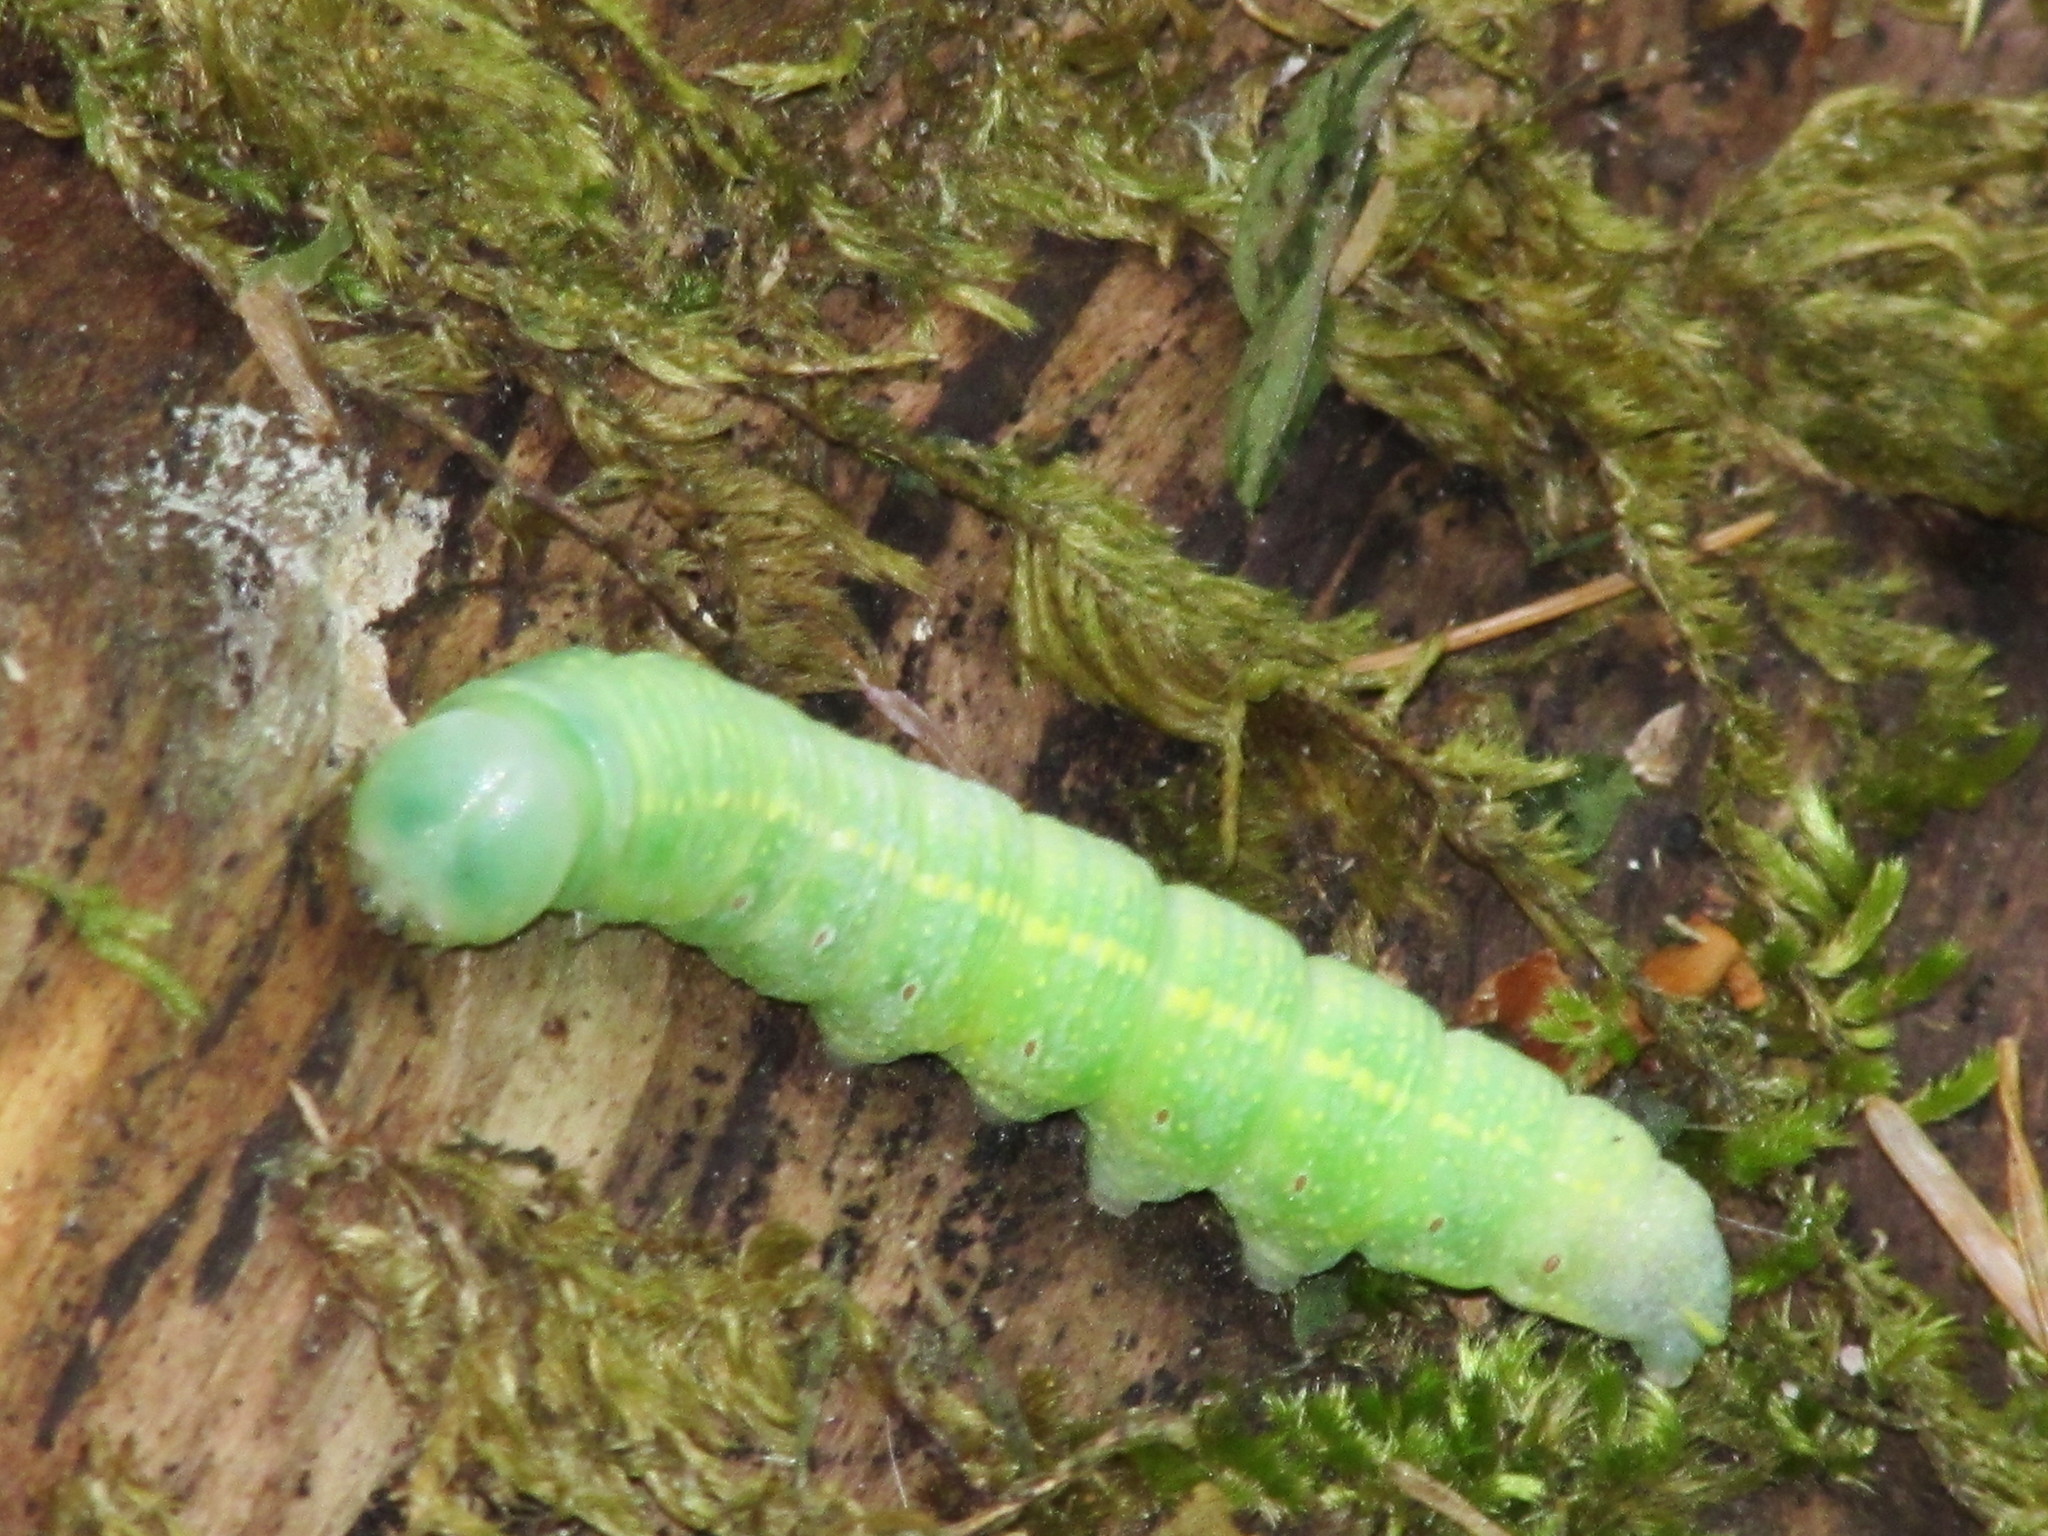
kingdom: Animalia
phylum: Arthropoda
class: Insecta
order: Lepidoptera
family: Notodontidae
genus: Nadata
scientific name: Nadata oregonensis
